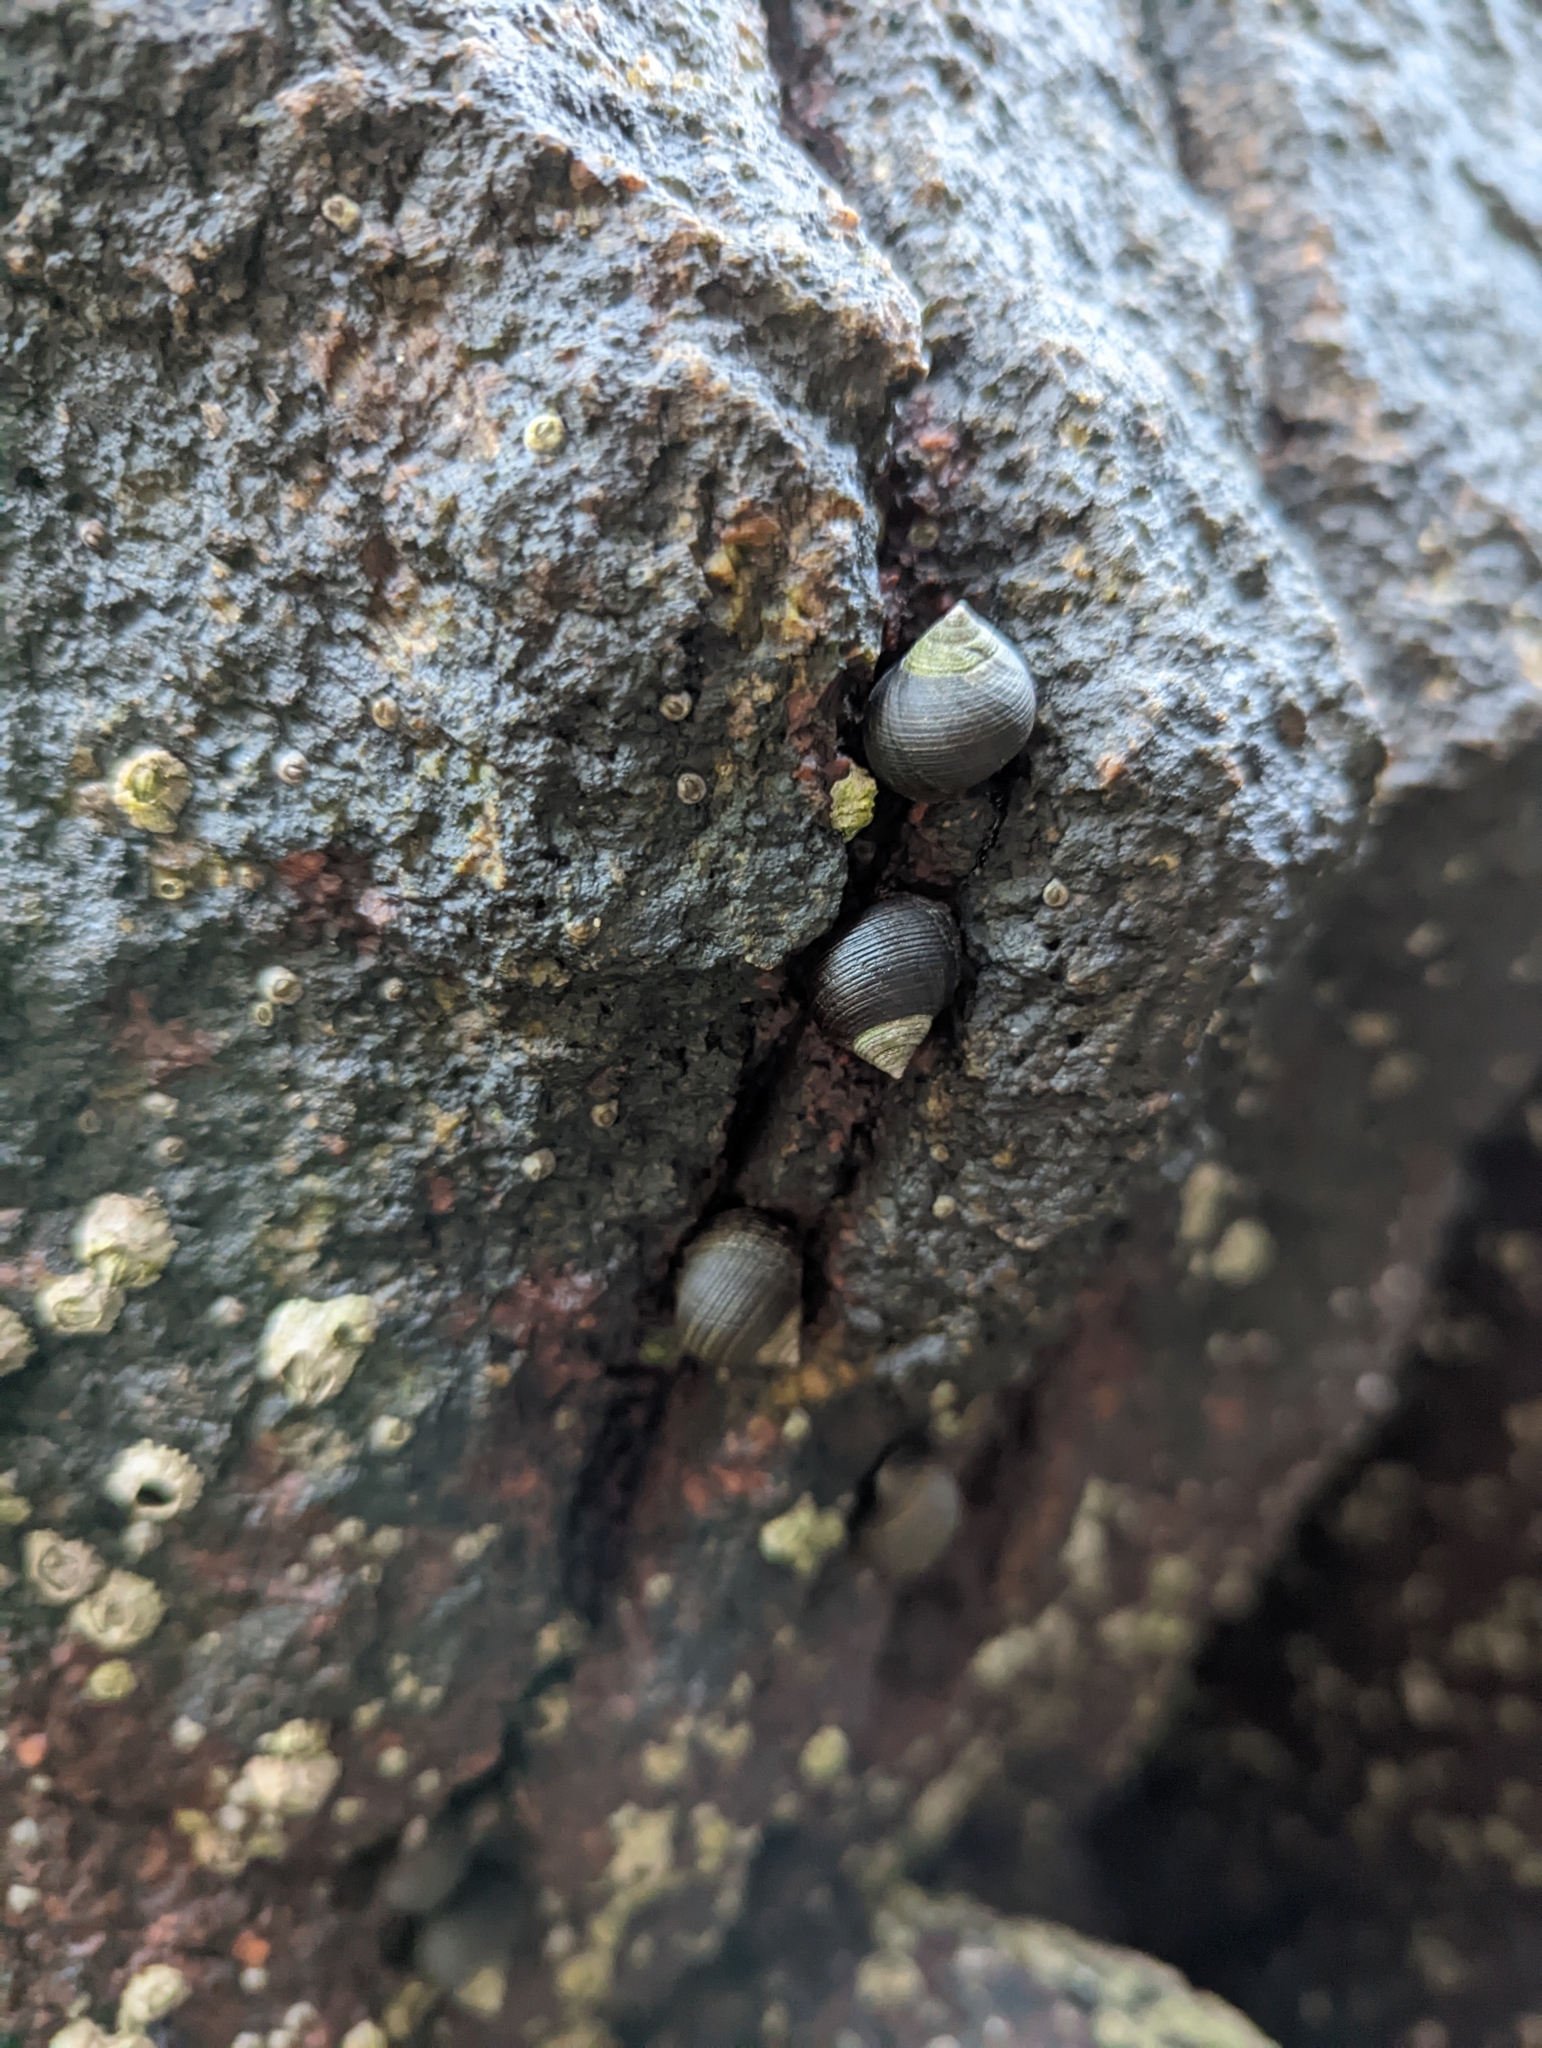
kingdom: Animalia
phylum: Mollusca
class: Gastropoda
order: Littorinimorpha
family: Littorinidae
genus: Littorina
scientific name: Littorina littorea
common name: Common periwinkle
